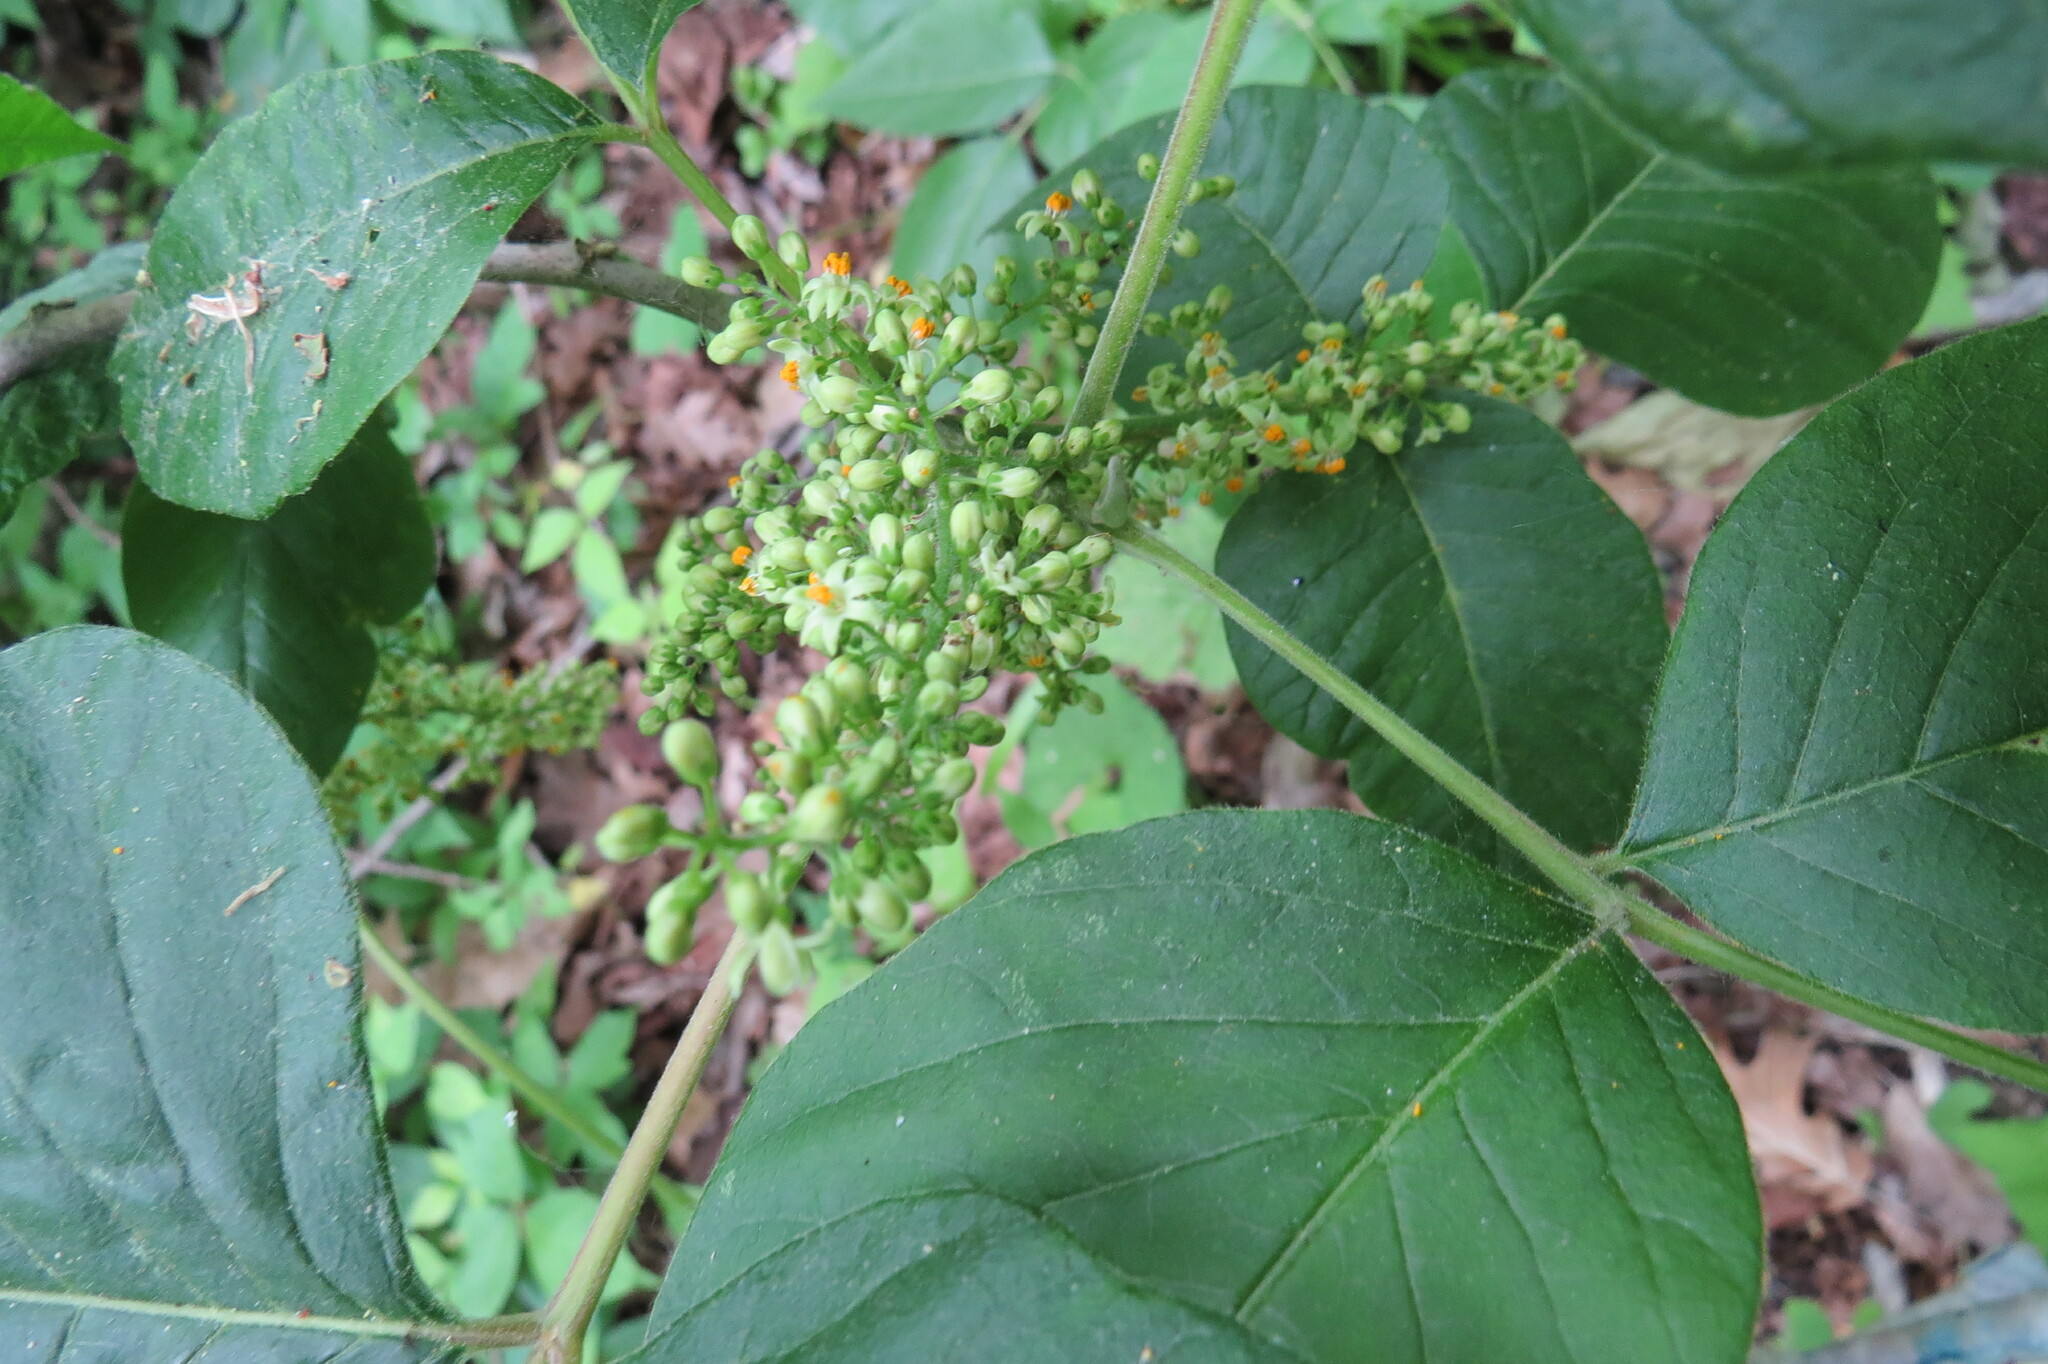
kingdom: Plantae
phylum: Tracheophyta
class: Magnoliopsida
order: Sapindales
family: Anacardiaceae
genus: Toxicodendron
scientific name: Toxicodendron radicans
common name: Poison ivy
